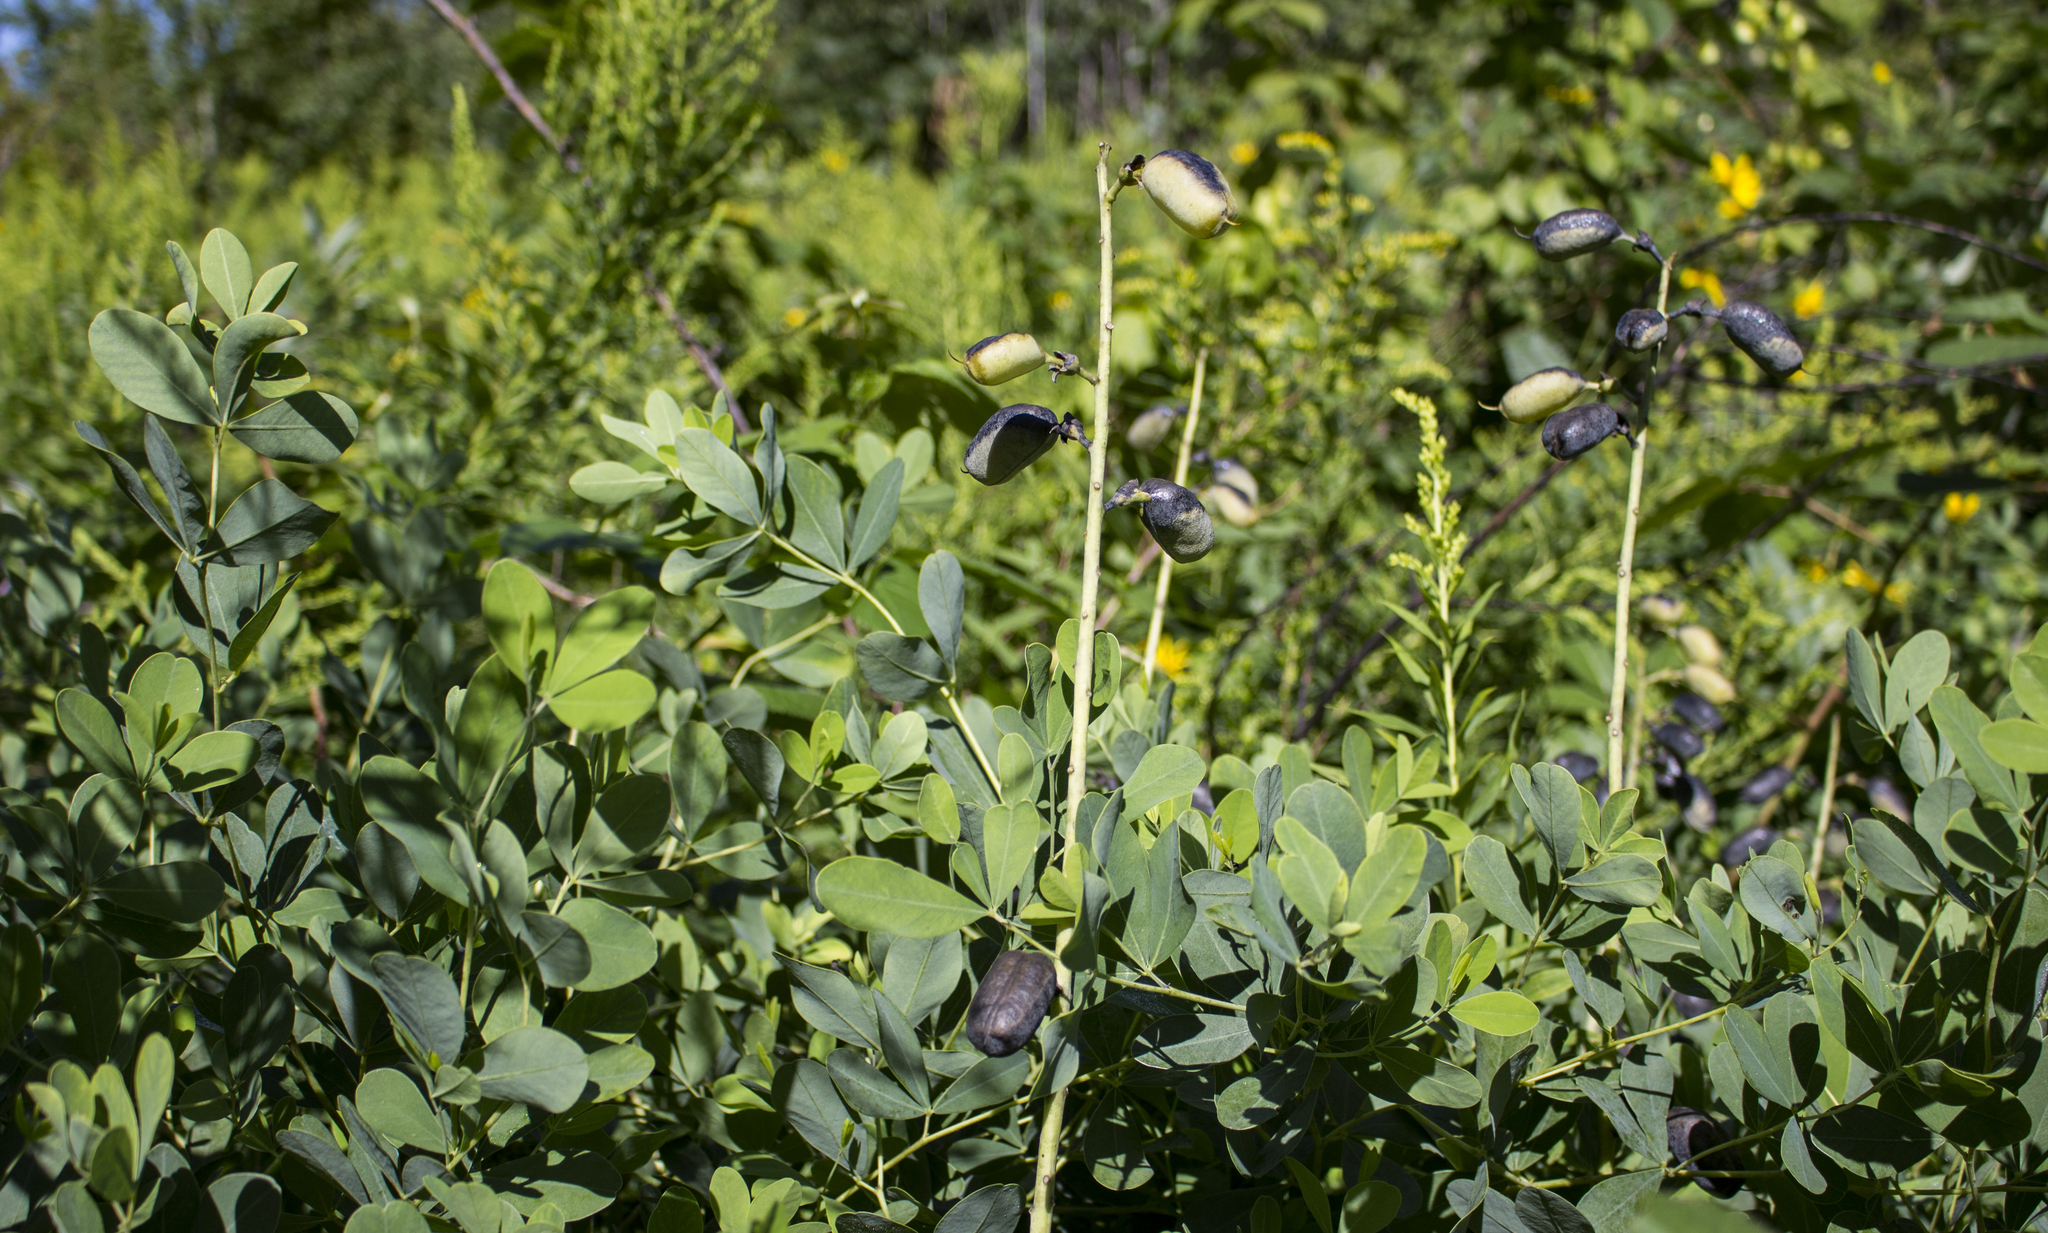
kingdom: Plantae
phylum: Tracheophyta
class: Magnoliopsida
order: Fabales
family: Fabaceae
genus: Baptisia
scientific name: Baptisia alba
